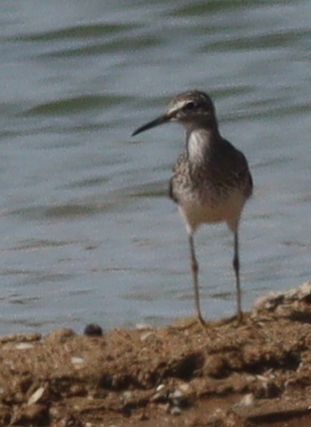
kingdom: Animalia
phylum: Chordata
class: Aves
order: Charadriiformes
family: Scolopacidae
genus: Tringa
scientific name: Tringa glareola
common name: Wood sandpiper
